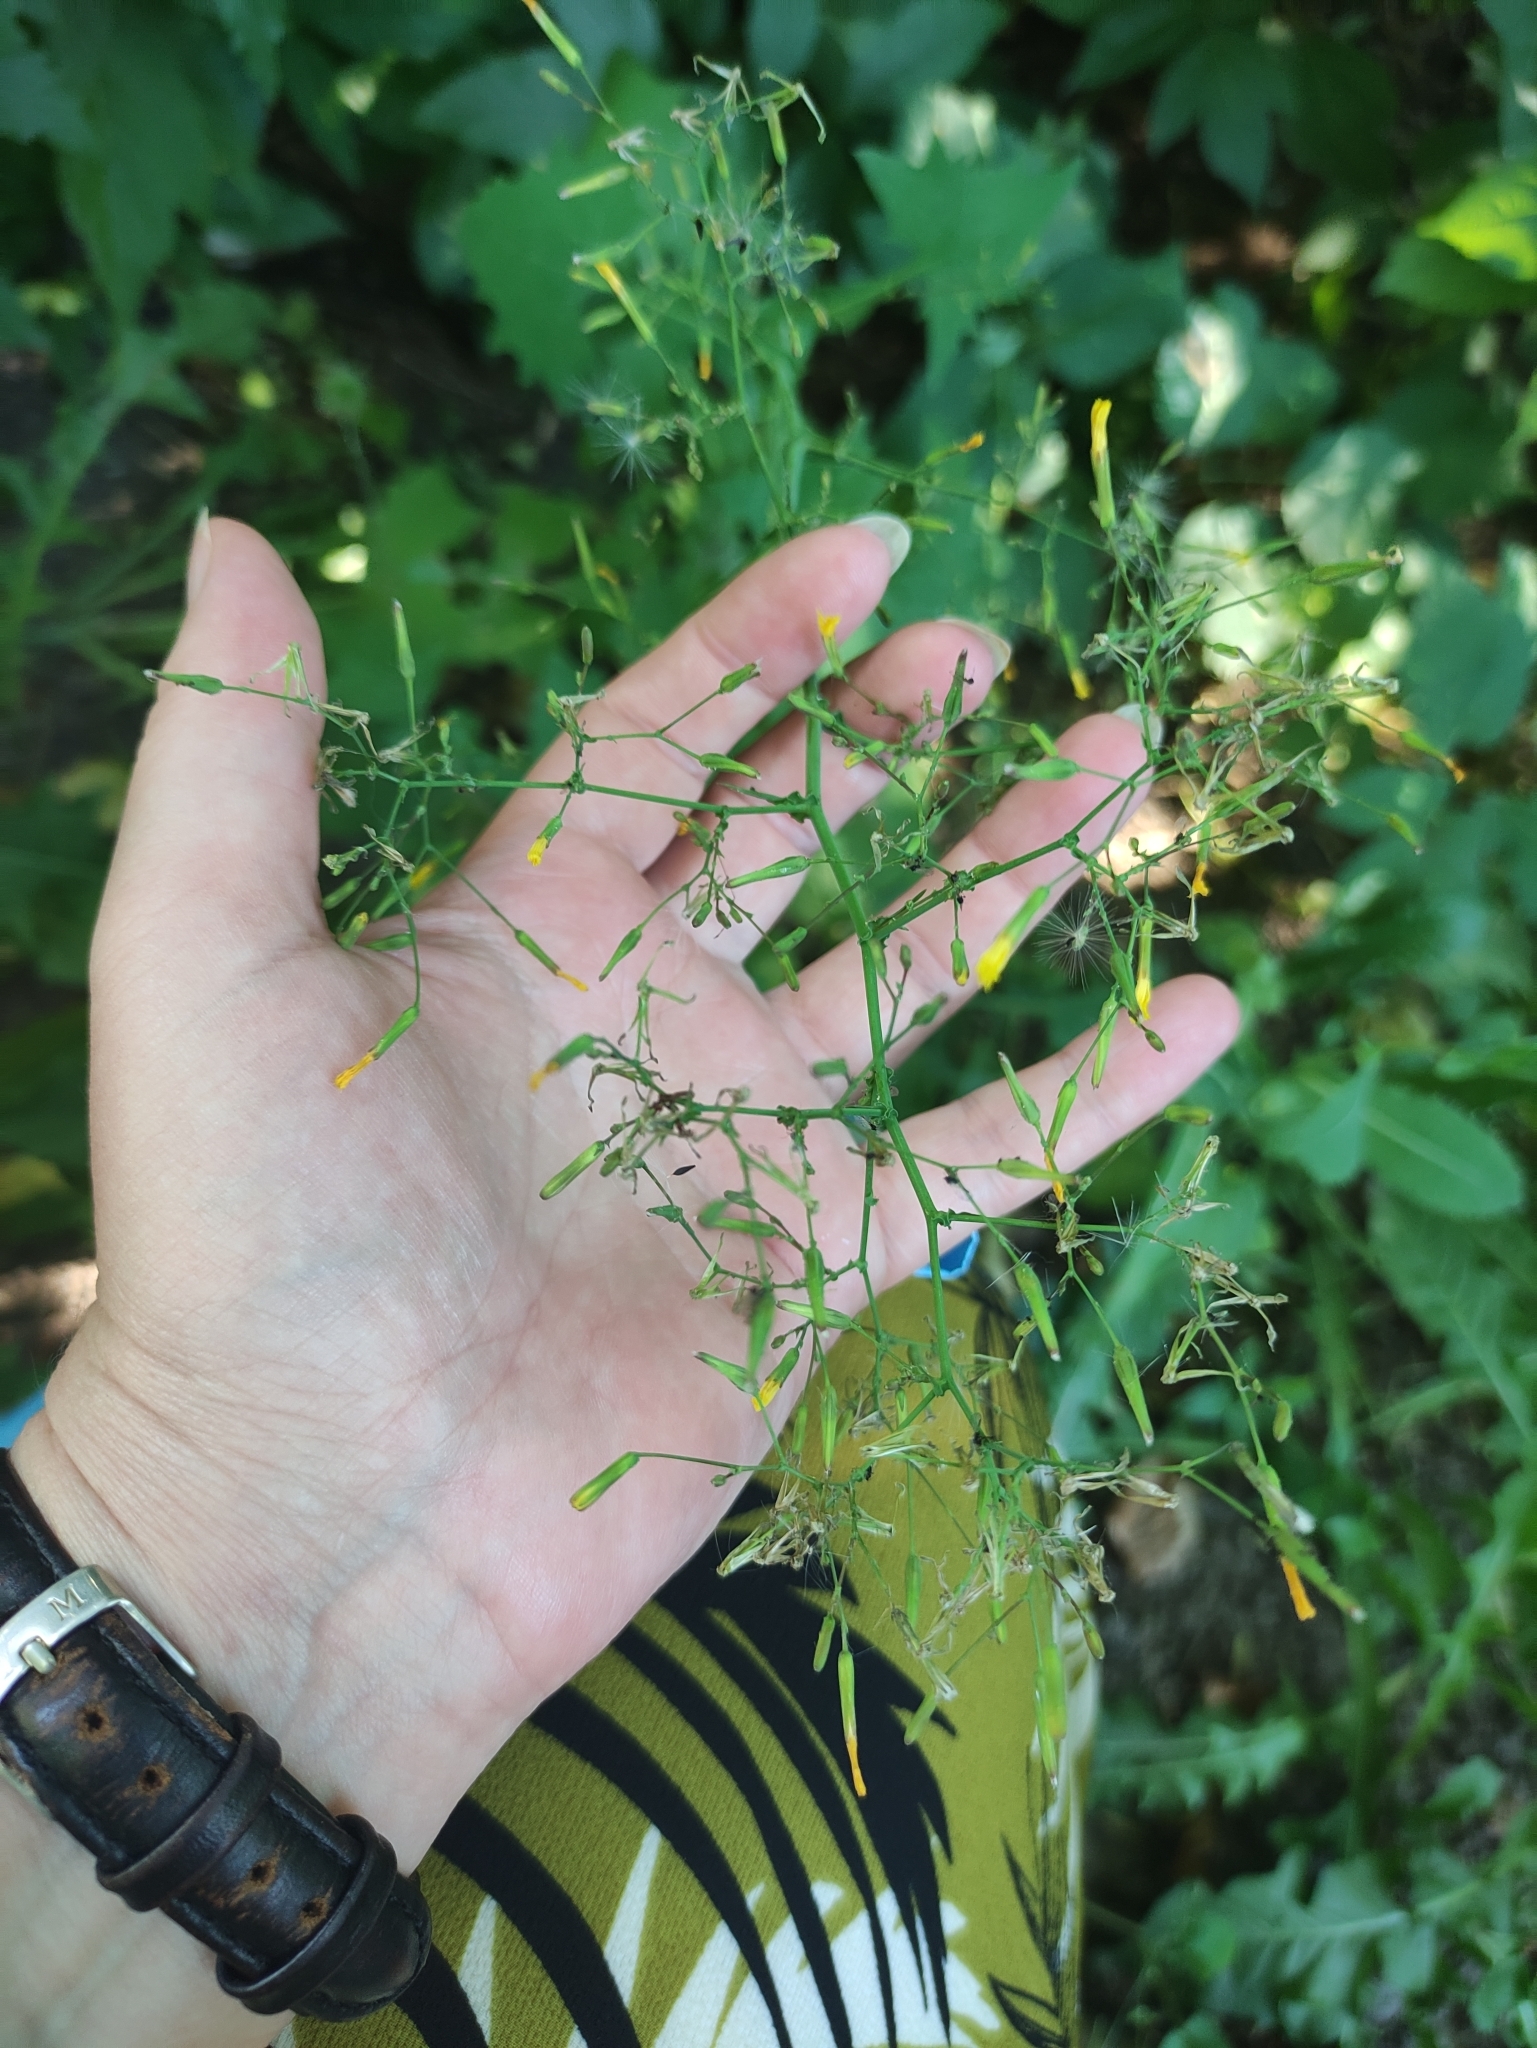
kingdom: Plantae
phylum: Tracheophyta
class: Magnoliopsida
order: Asterales
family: Asteraceae
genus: Mycelis
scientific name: Mycelis muralis
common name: Wall lettuce
